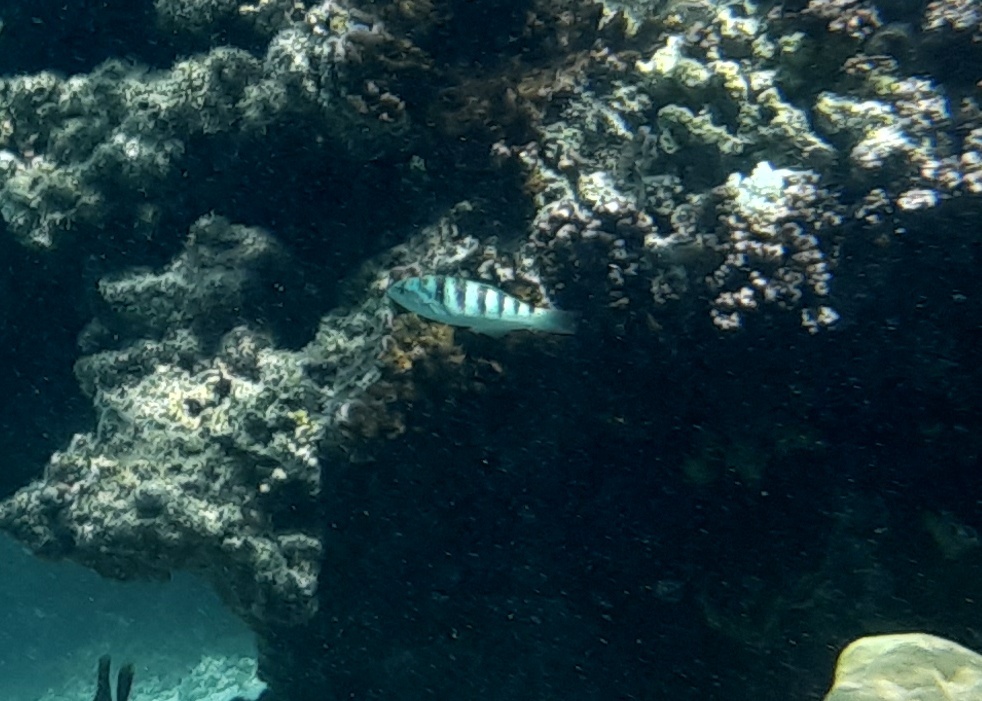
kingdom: Animalia
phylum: Chordata
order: Perciformes
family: Labridae
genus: Thalassoma
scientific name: Thalassoma hardwicke
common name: Sixbar wrasse
